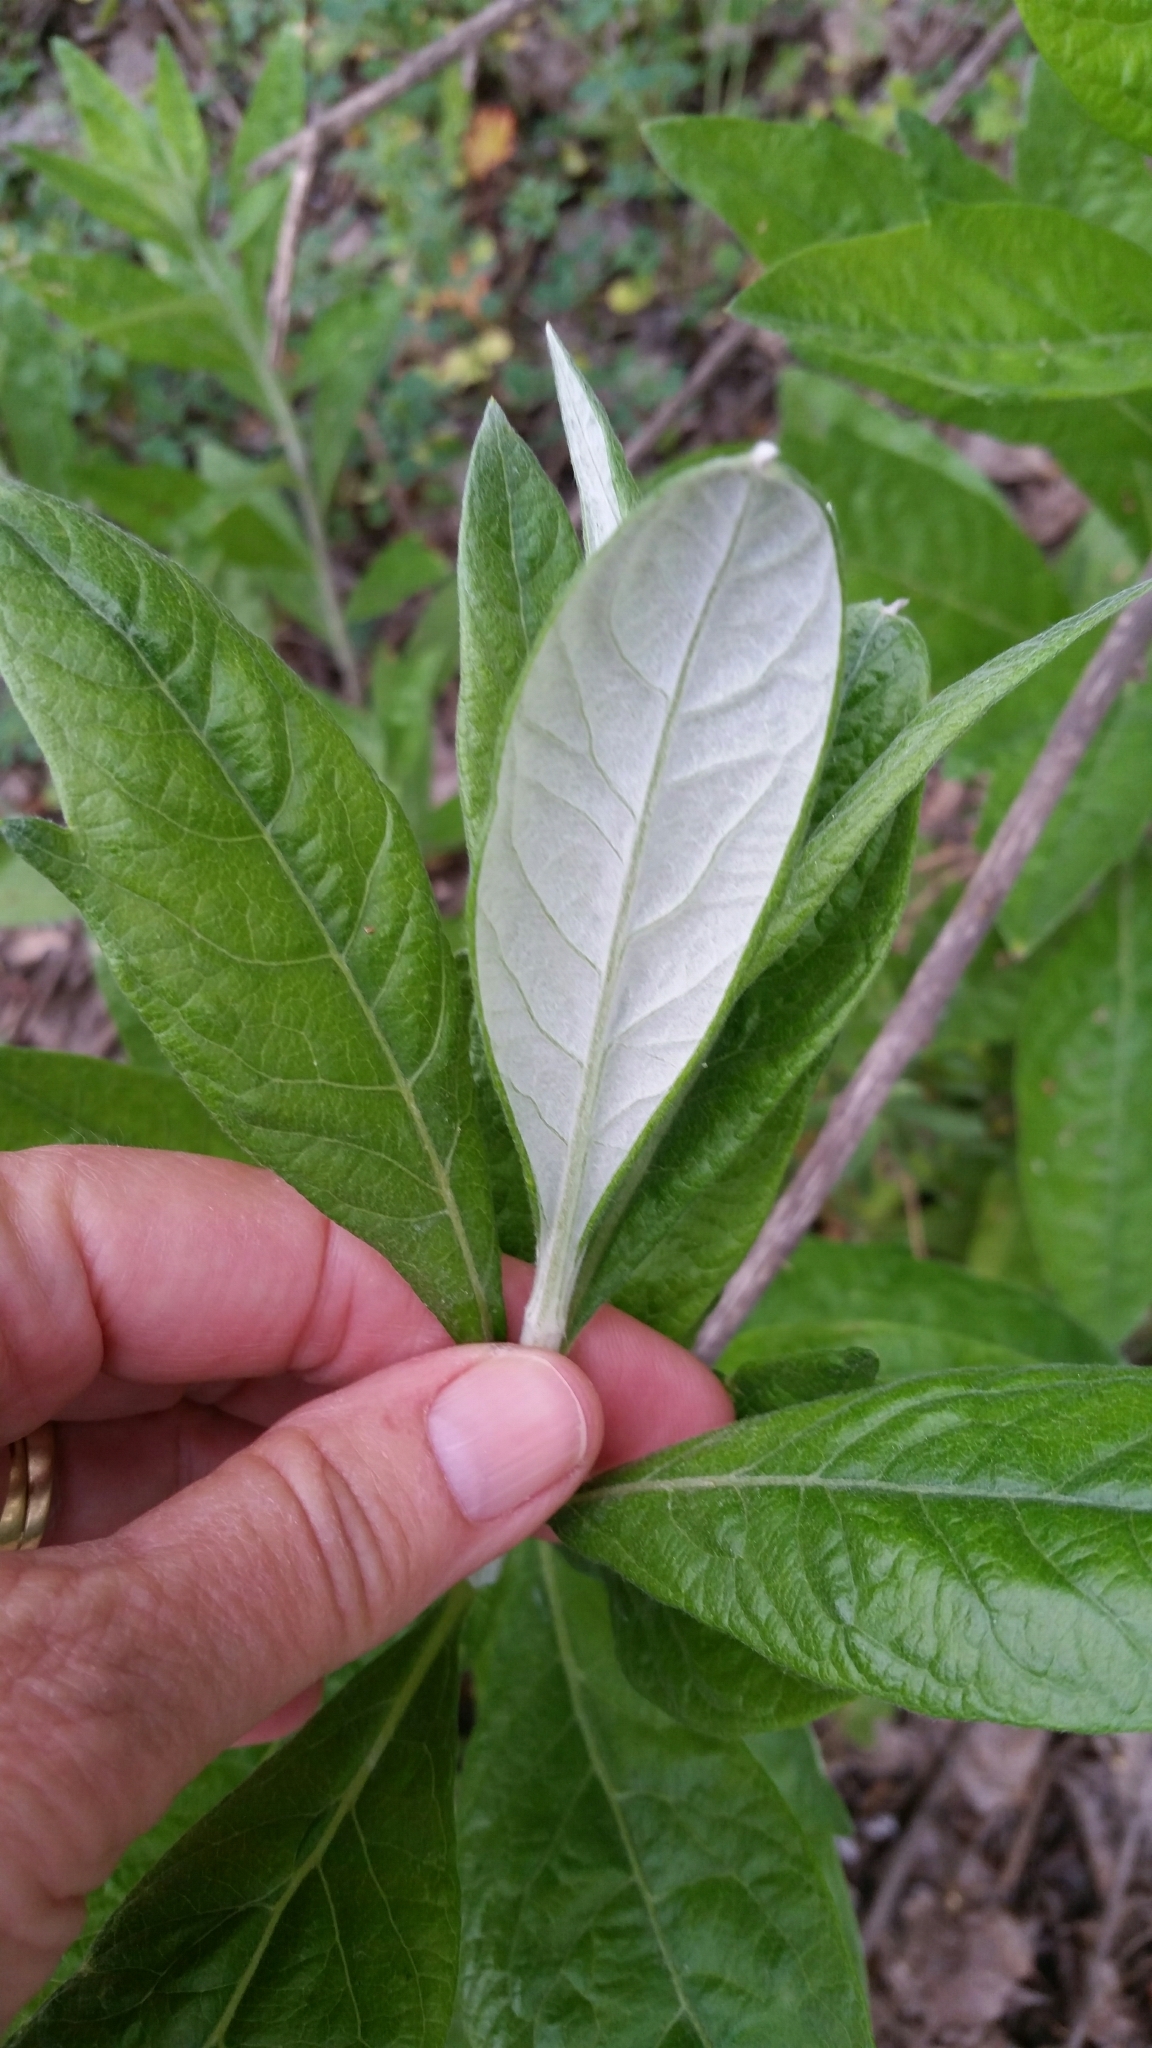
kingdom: Plantae
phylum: Tracheophyta
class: Magnoliopsida
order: Asterales
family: Asteraceae
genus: Artemisia
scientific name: Artemisia douglasiana
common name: Northwest mugwort
